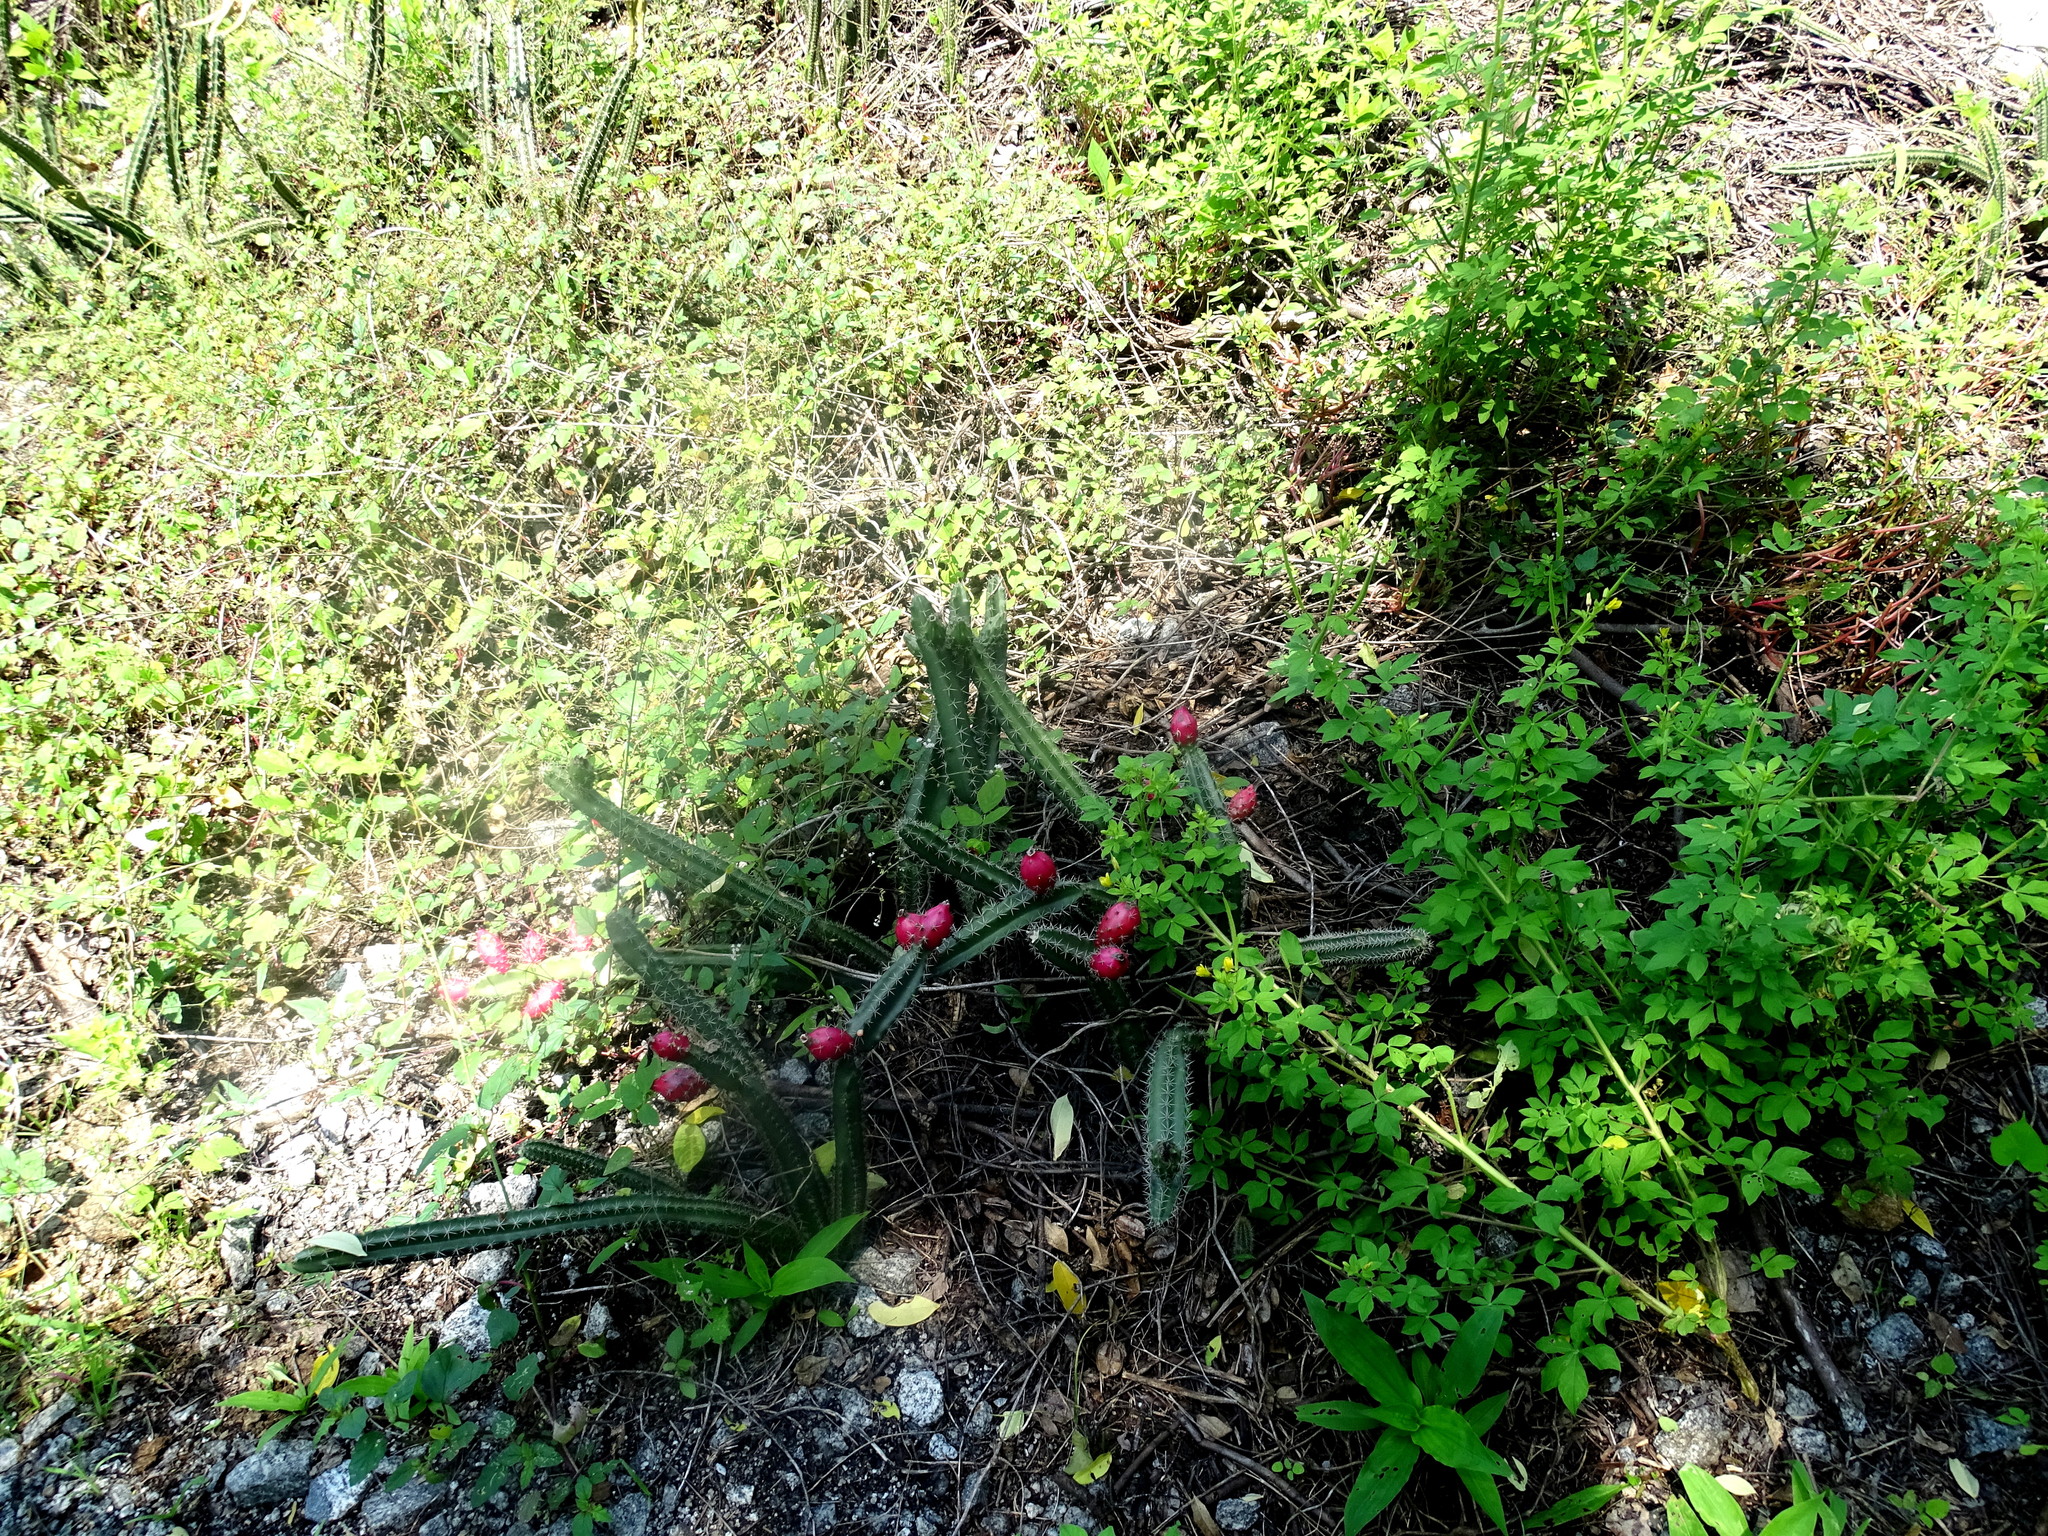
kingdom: Plantae
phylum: Tracheophyta
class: Magnoliopsida
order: Caryophyllales
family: Cactaceae
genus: Acanthocereus
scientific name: Acanthocereus hesperius
